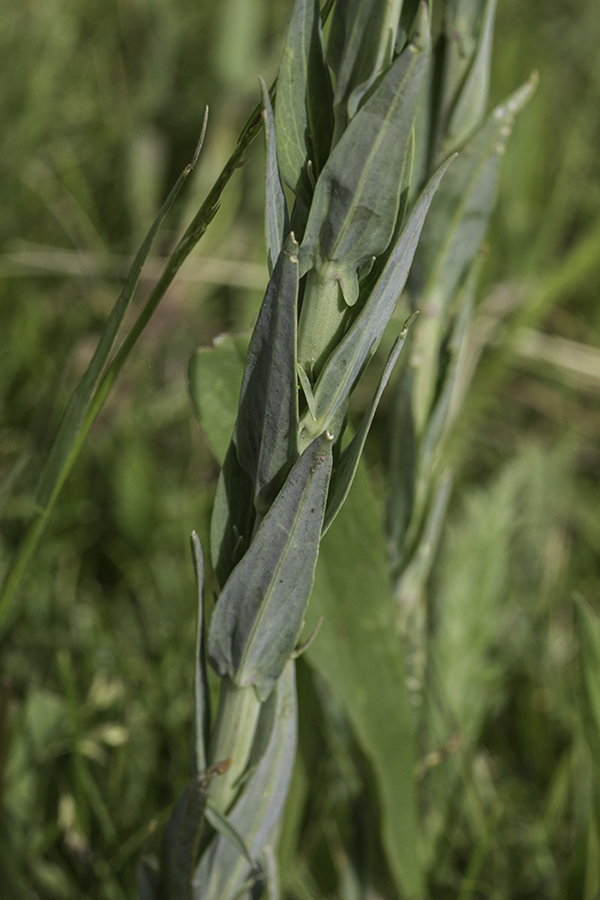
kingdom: Plantae
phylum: Tracheophyta
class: Magnoliopsida
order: Brassicales
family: Brassicaceae
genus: Turritis
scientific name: Turritis glabra
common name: Tower rockcress
